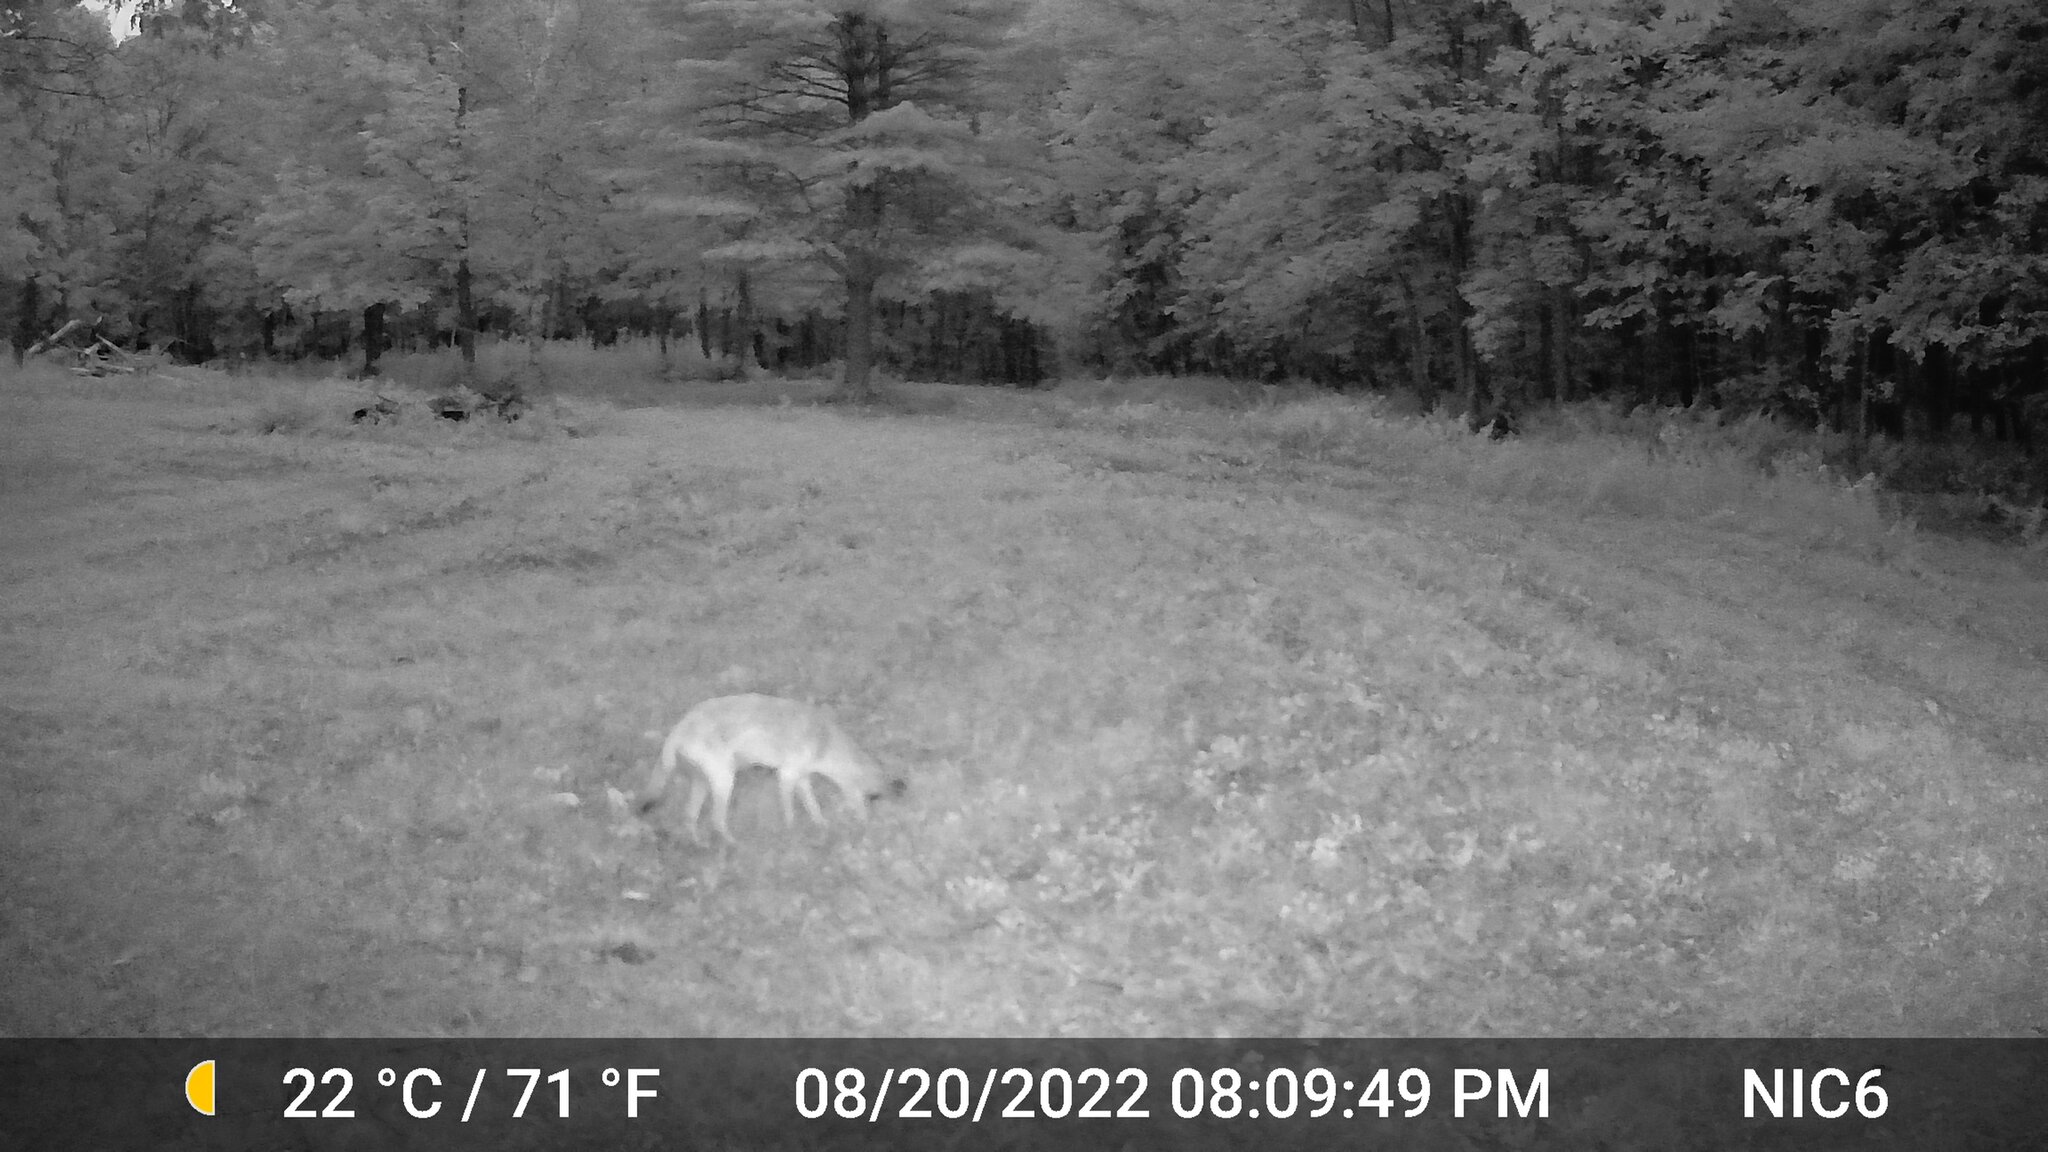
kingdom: Animalia
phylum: Chordata
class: Mammalia
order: Carnivora
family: Canidae
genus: Canis
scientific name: Canis latrans
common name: Coyote
